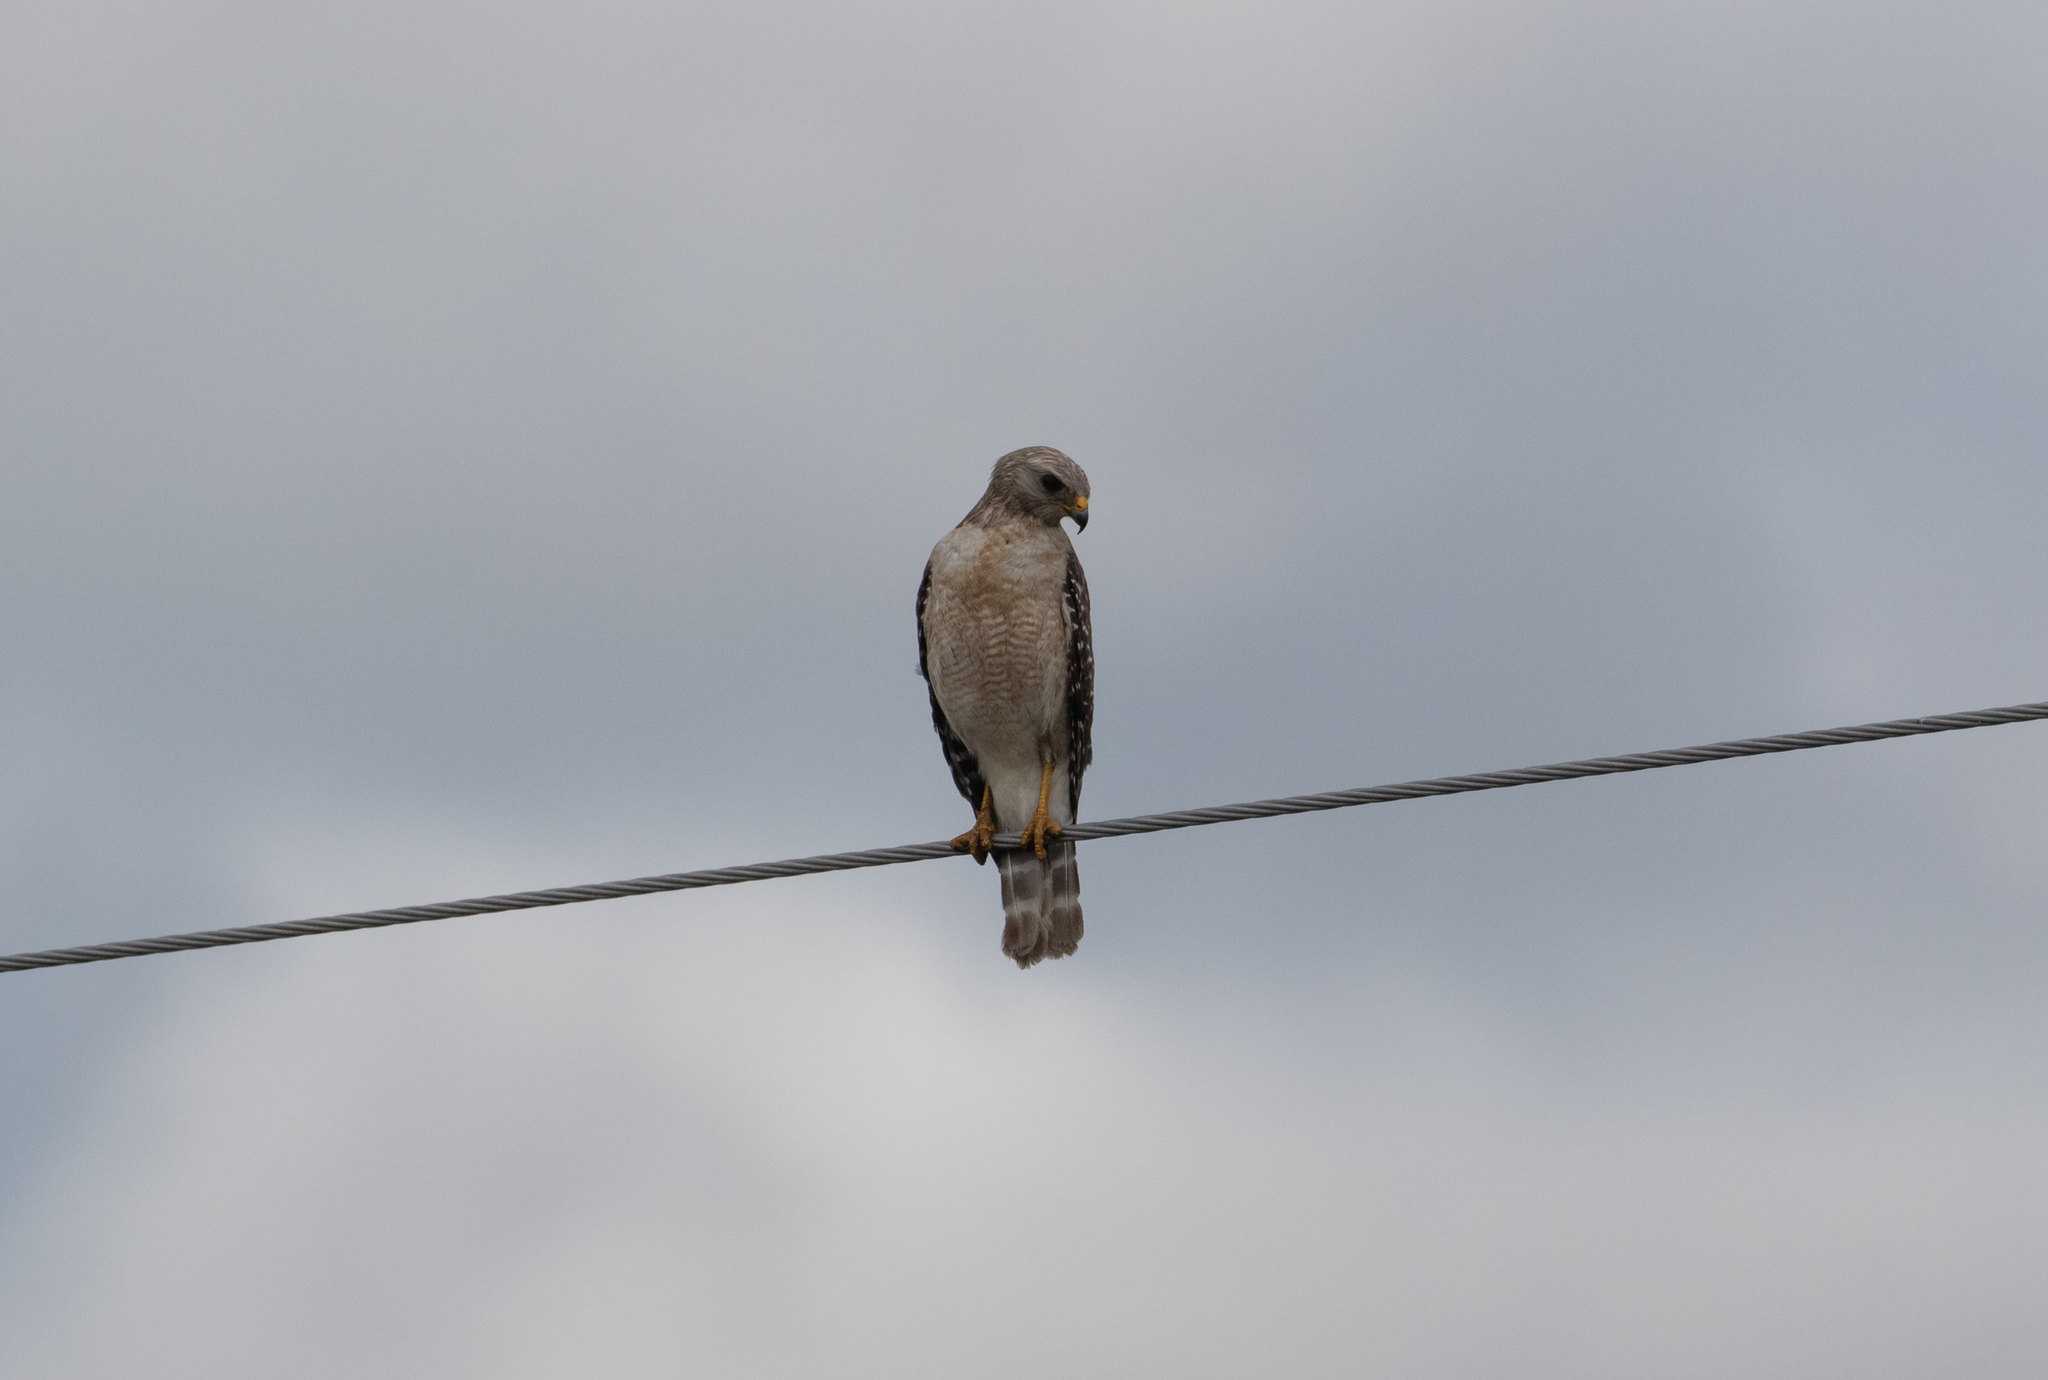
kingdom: Animalia
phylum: Chordata
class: Aves
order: Accipitriformes
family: Accipitridae
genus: Buteo
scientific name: Buteo lineatus
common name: Red-shouldered hawk
